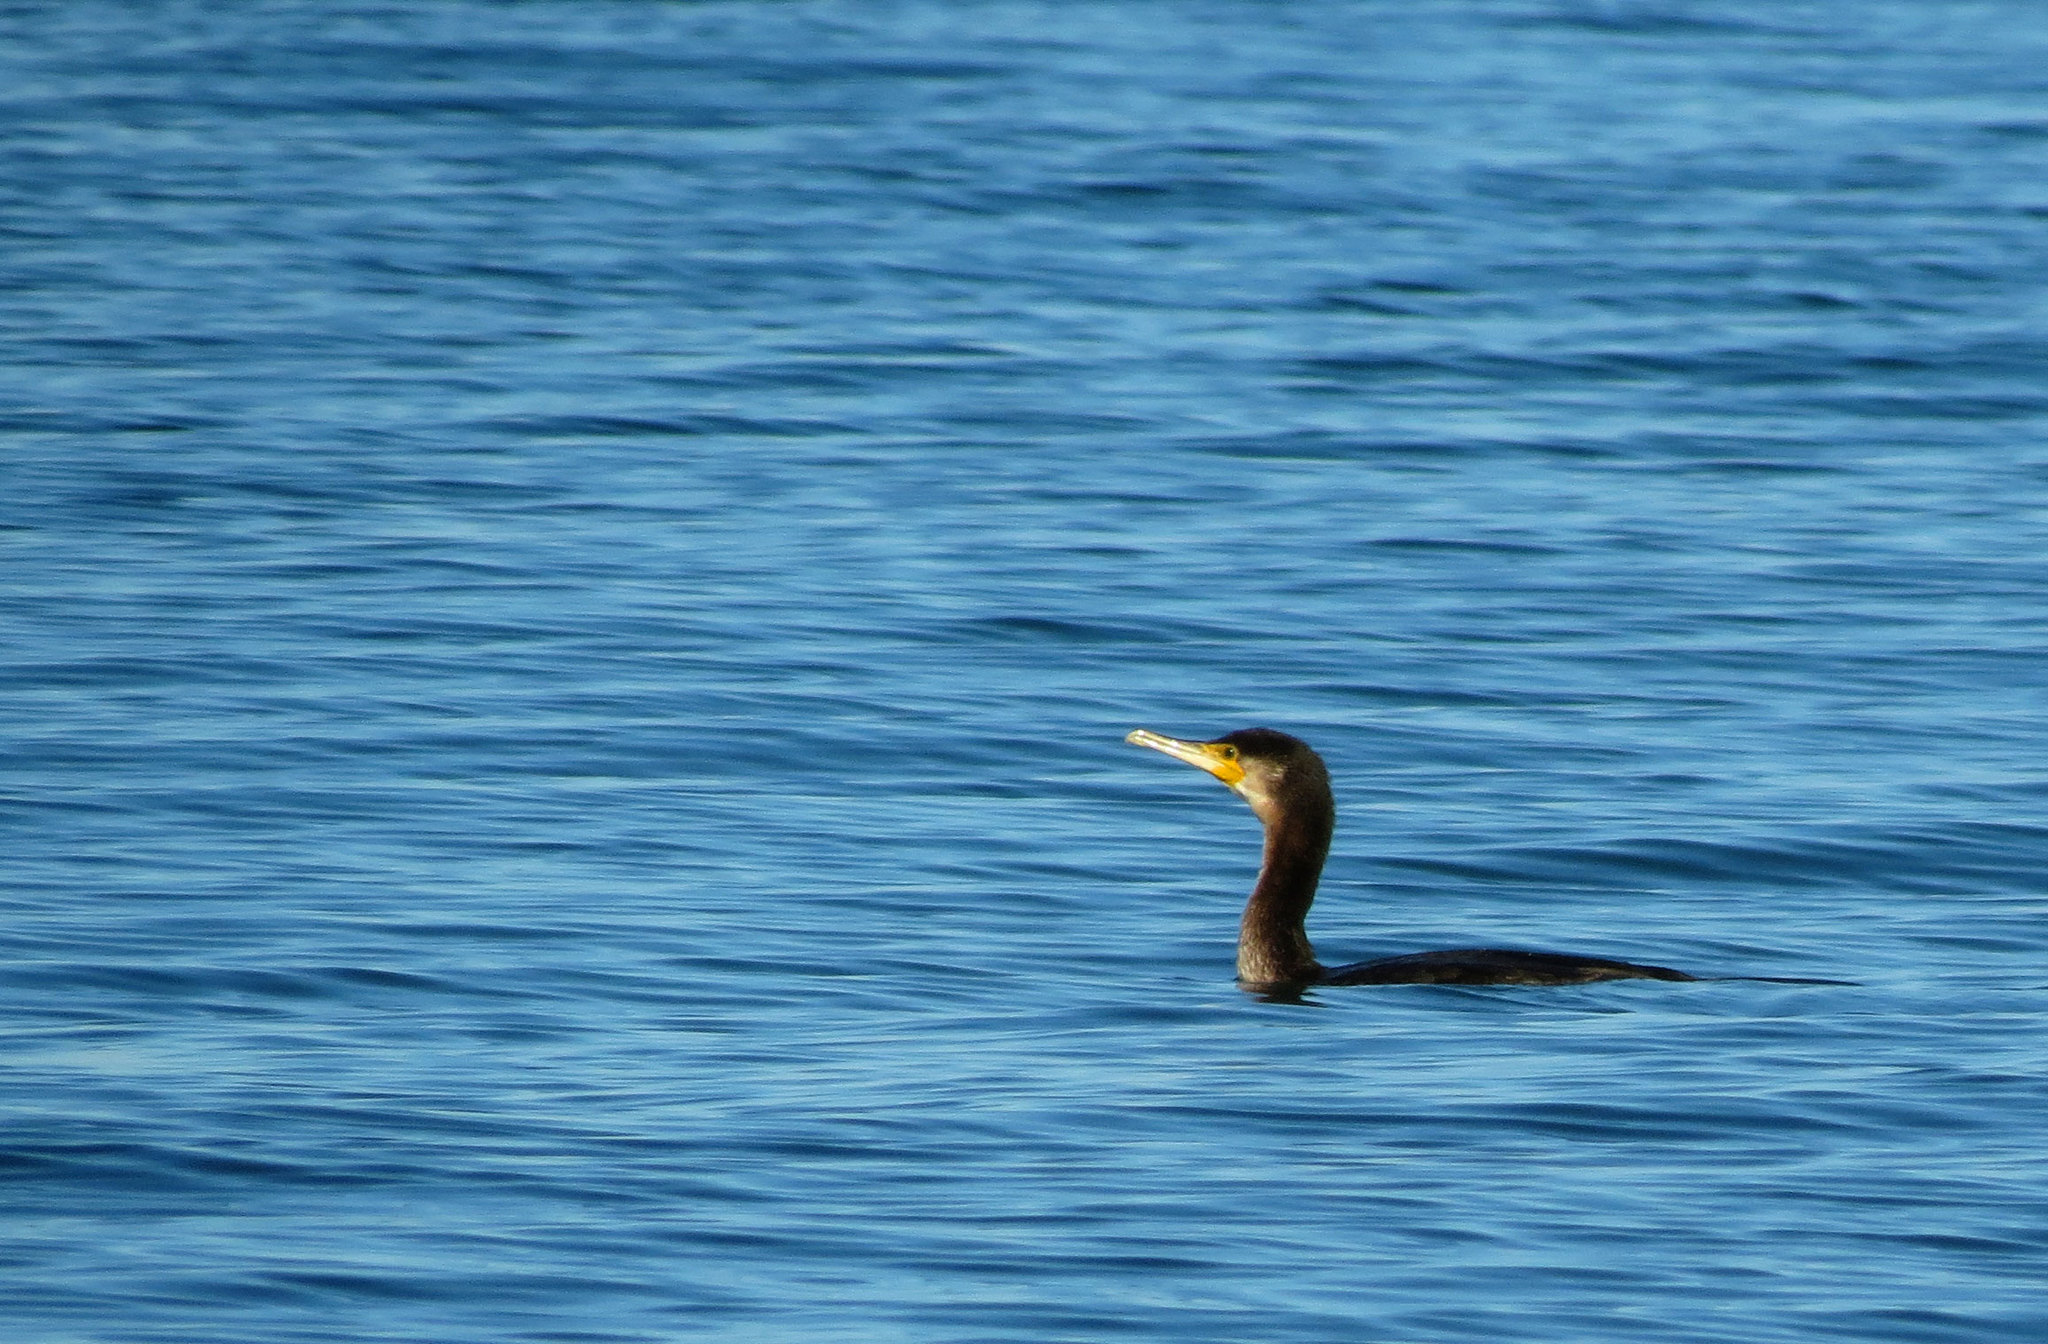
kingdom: Animalia
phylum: Chordata
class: Aves
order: Suliformes
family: Phalacrocoracidae
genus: Phalacrocorax
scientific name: Phalacrocorax carbo
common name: Great cormorant
